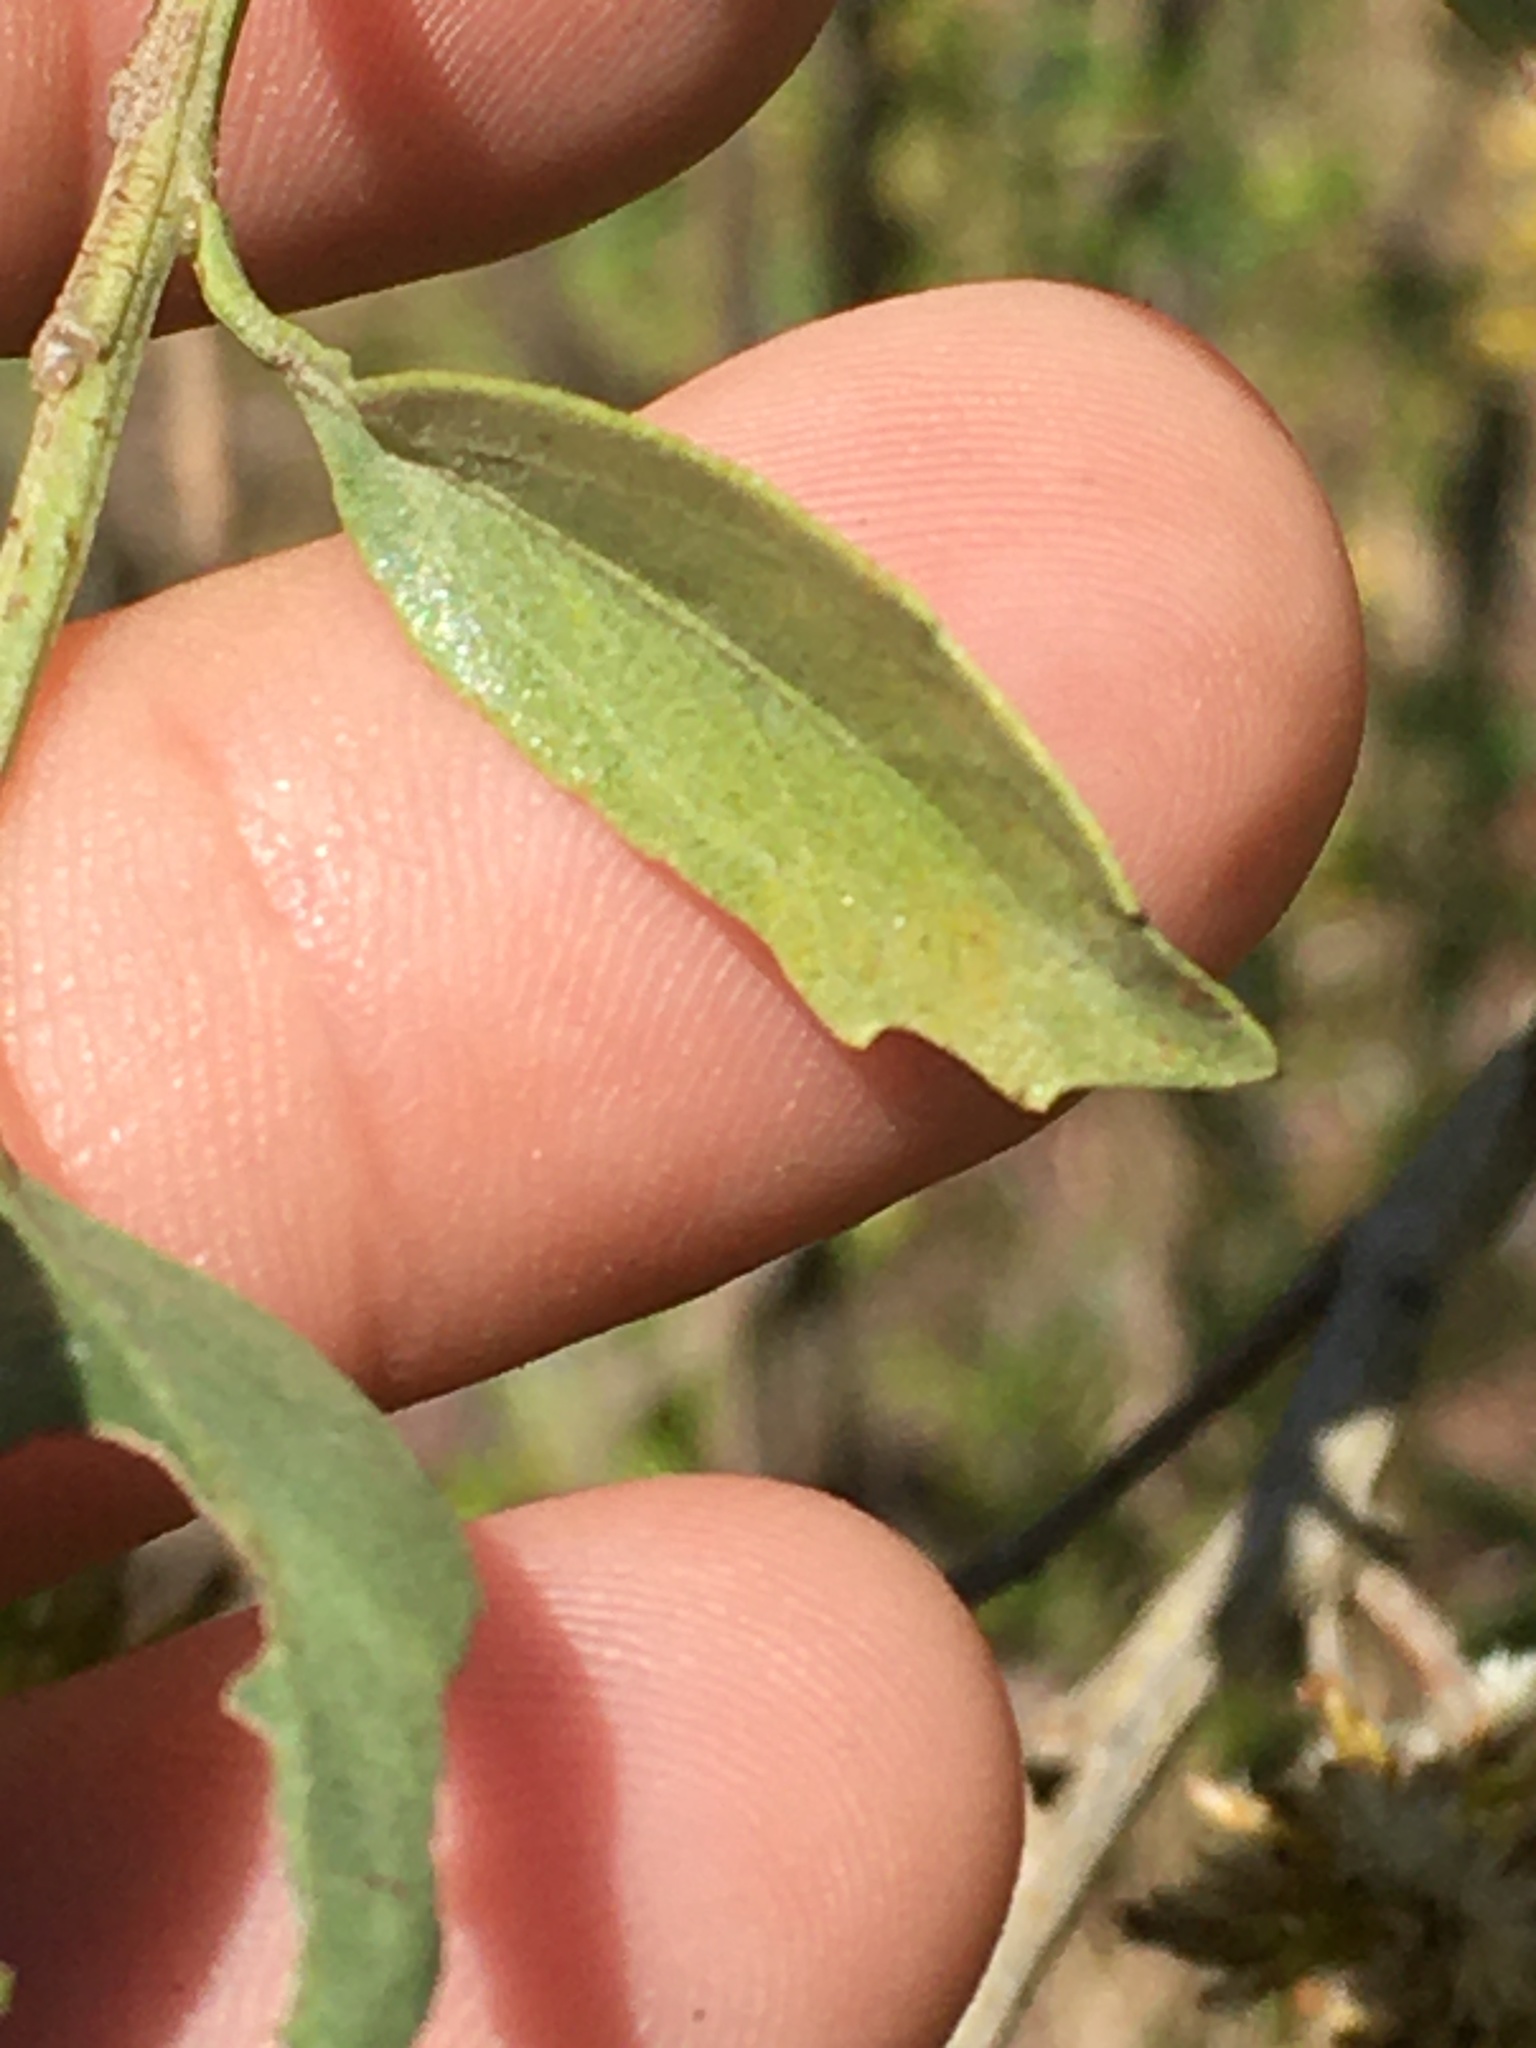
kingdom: Plantae
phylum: Tracheophyta
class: Magnoliopsida
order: Asterales
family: Asteraceae
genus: Baccharis
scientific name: Baccharis halimifolia
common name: Eastern baccharis
